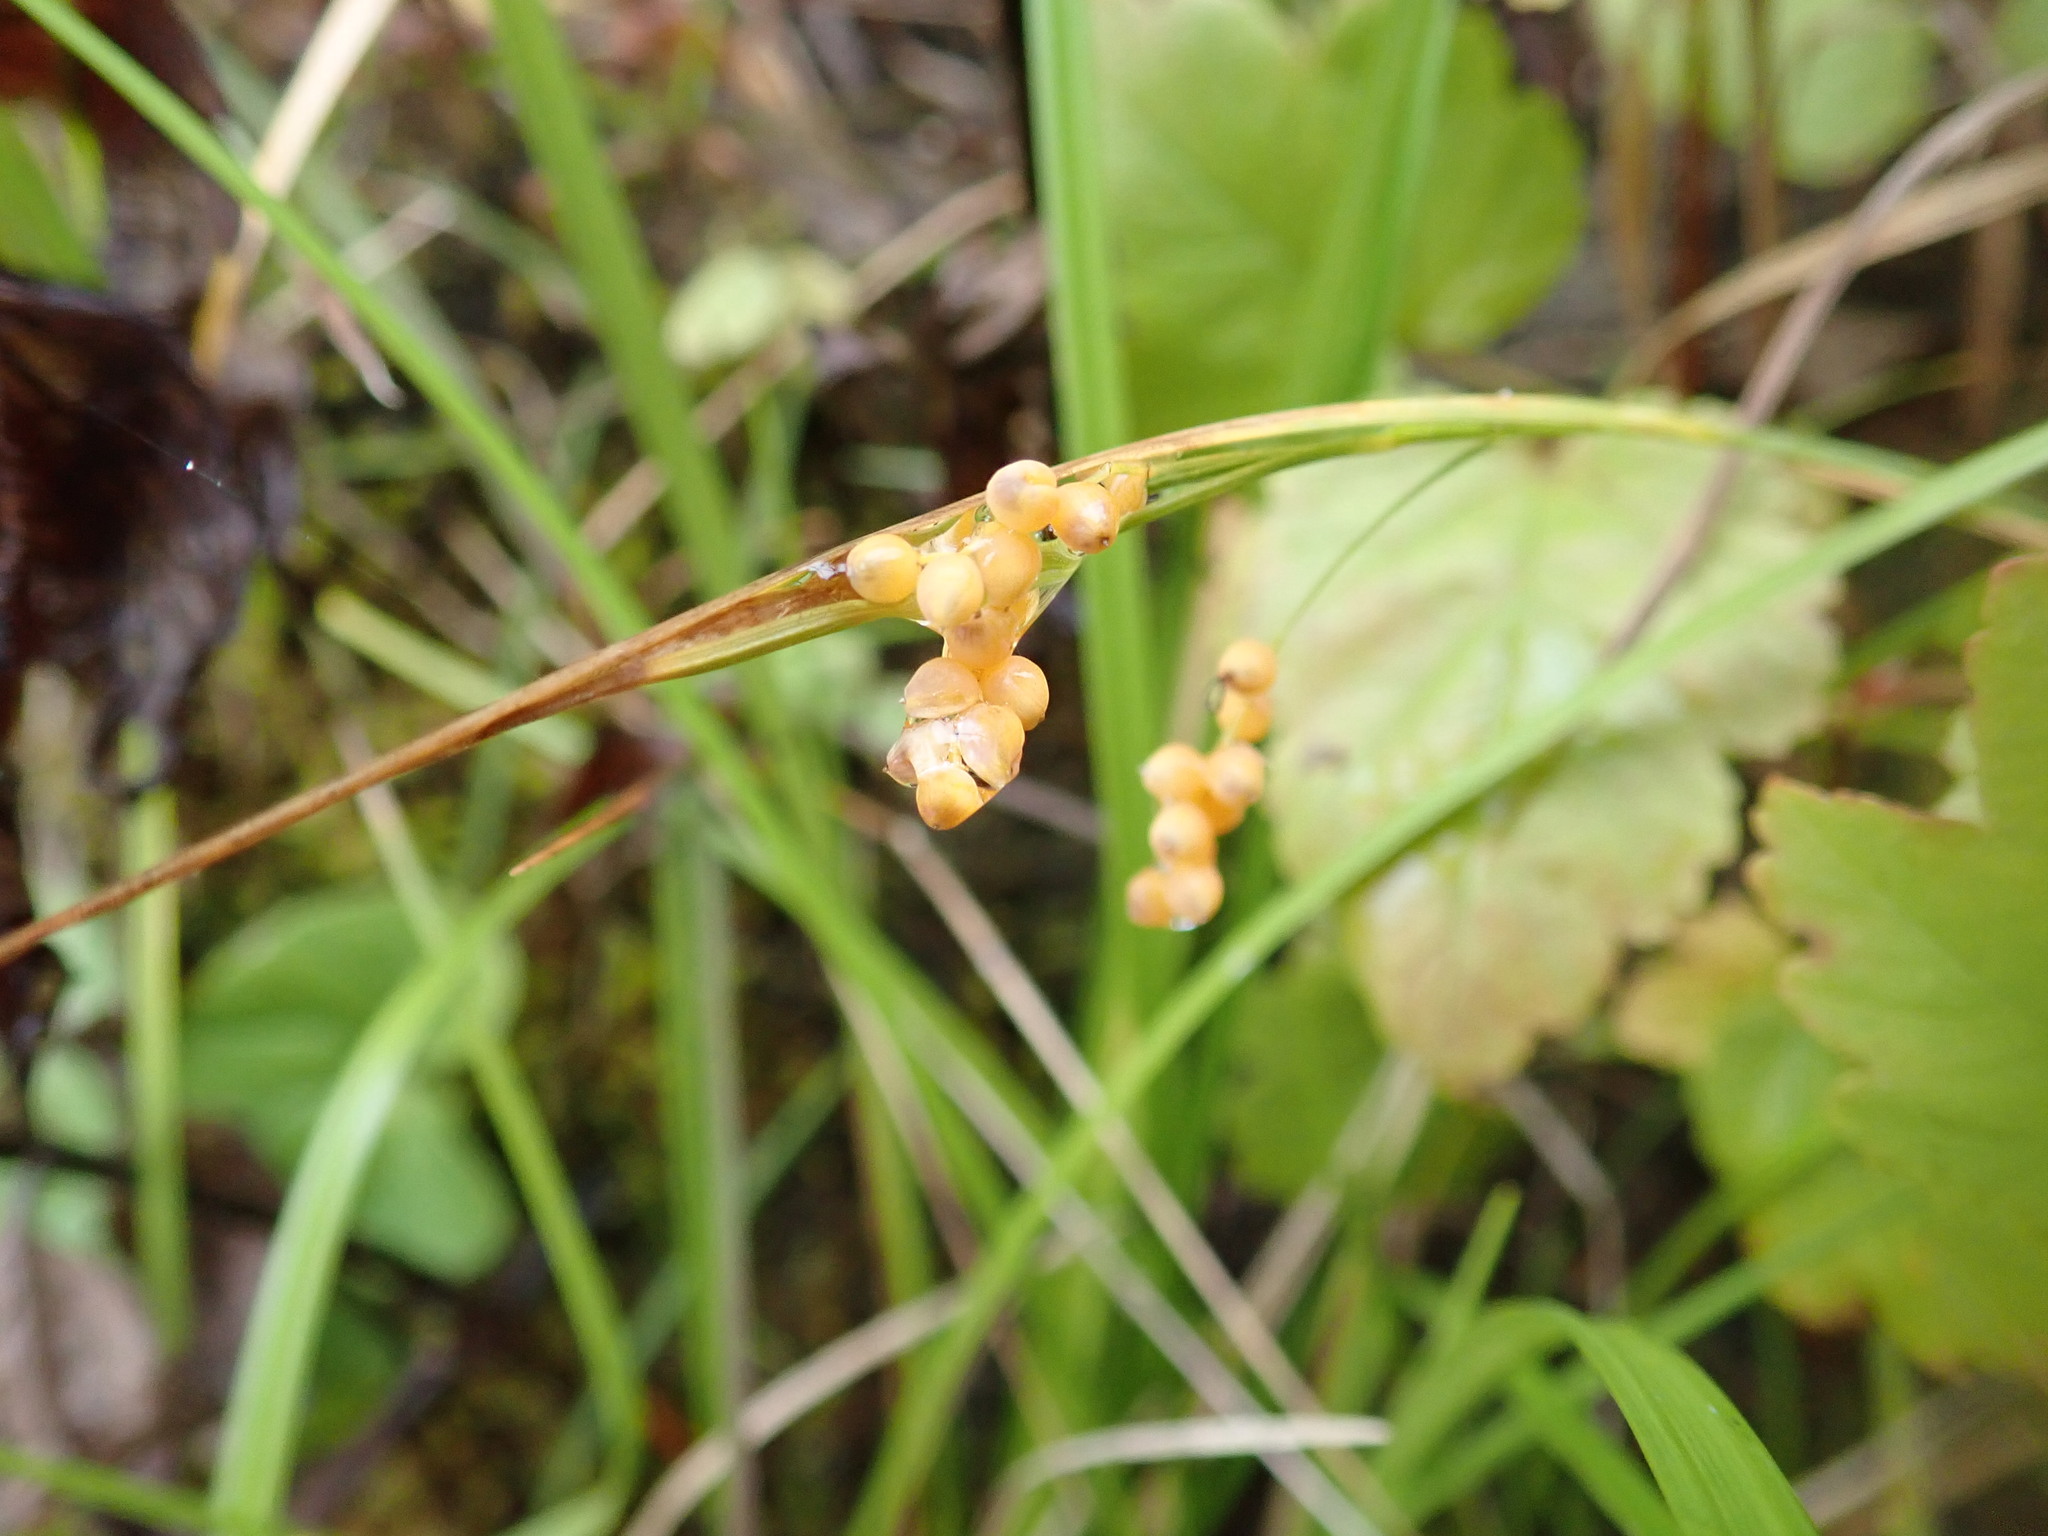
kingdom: Plantae
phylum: Tracheophyta
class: Liliopsida
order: Poales
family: Cyperaceae
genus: Carex
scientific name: Carex aurea
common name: Golden sedge
